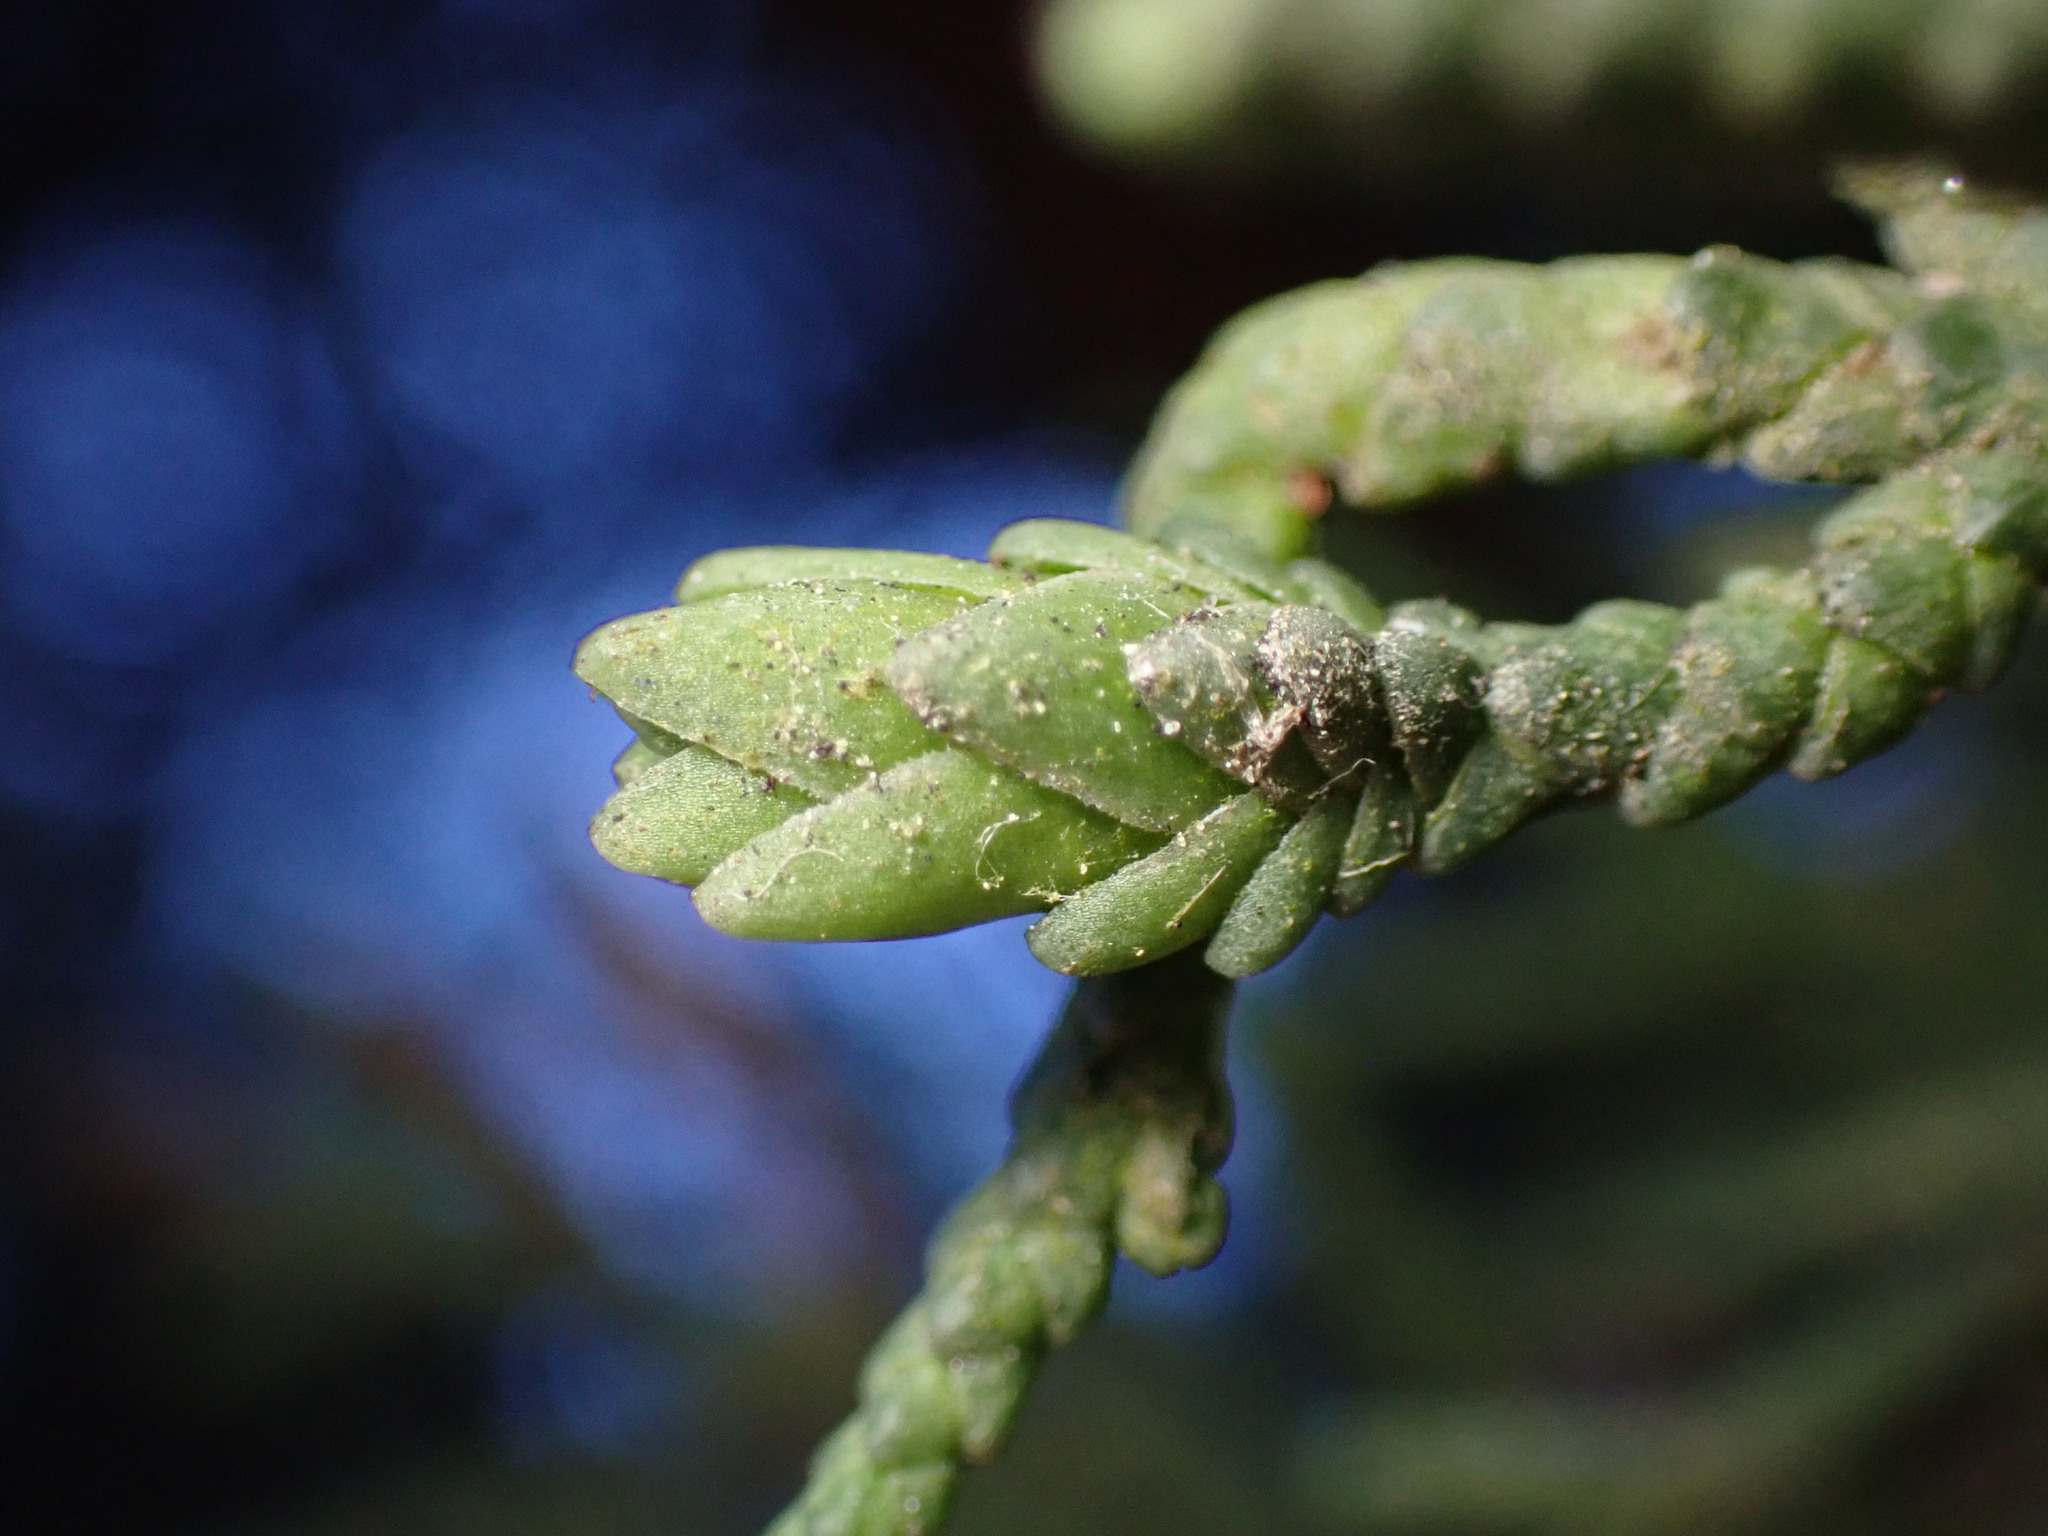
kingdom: Animalia
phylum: Arthropoda
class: Insecta
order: Diptera
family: Cecidomyiidae
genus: Oligotrophus
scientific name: Oligotrophus cupressi
